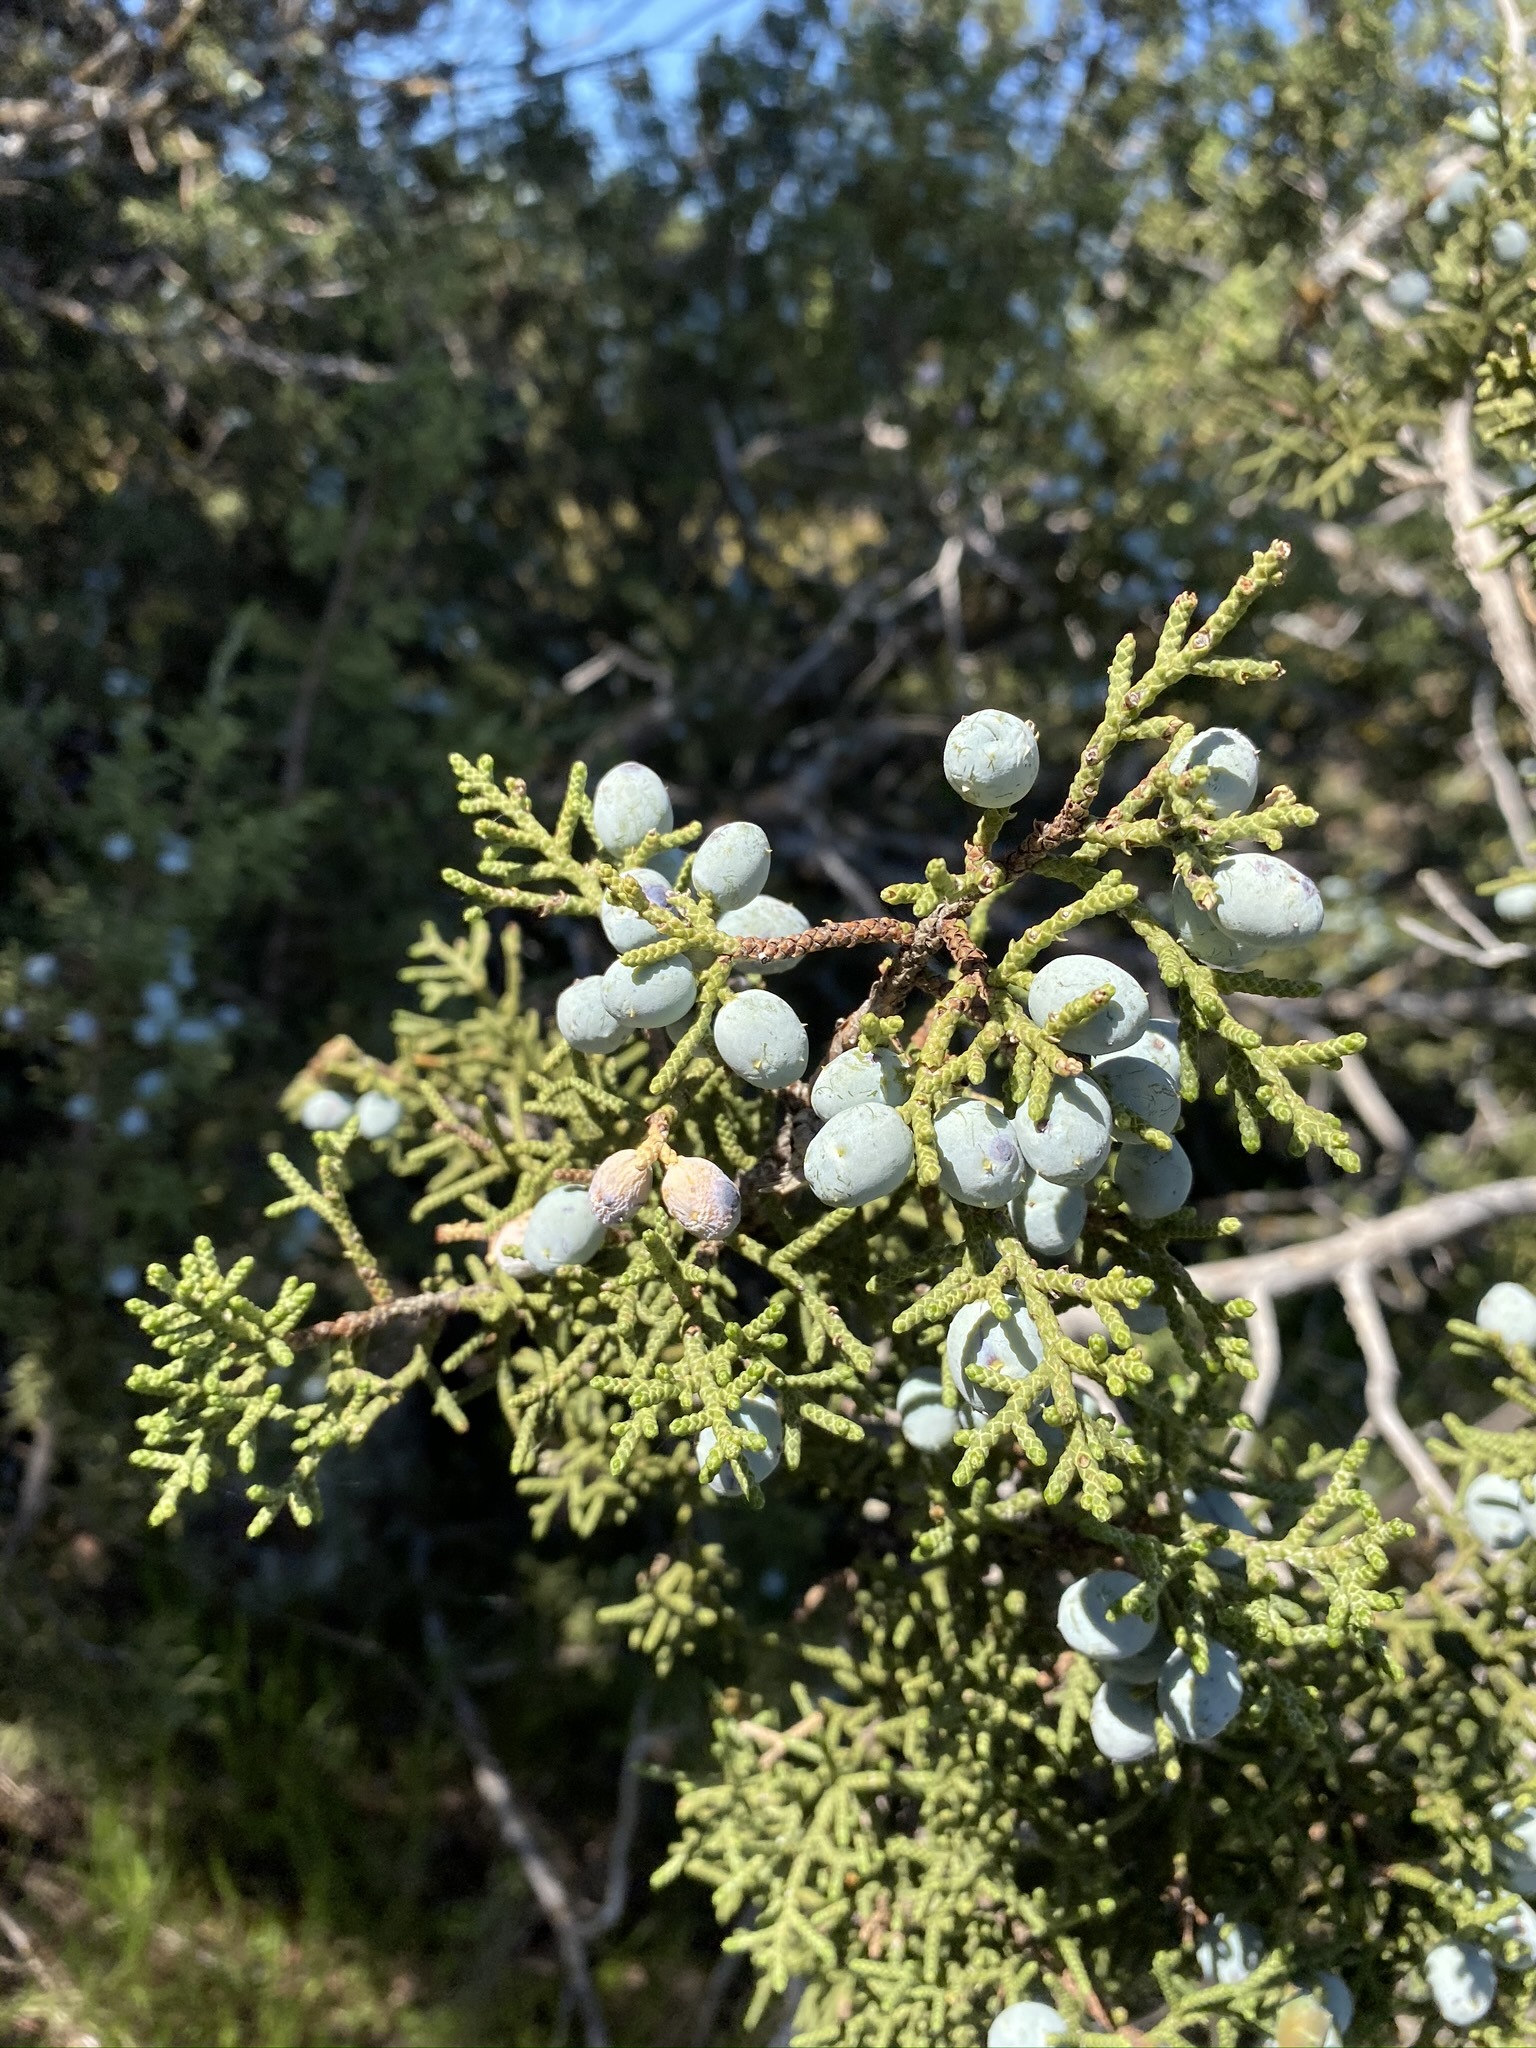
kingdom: Plantae
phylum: Tracheophyta
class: Pinopsida
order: Pinales
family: Cupressaceae
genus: Juniperus
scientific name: Juniperus californica
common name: California juniper
